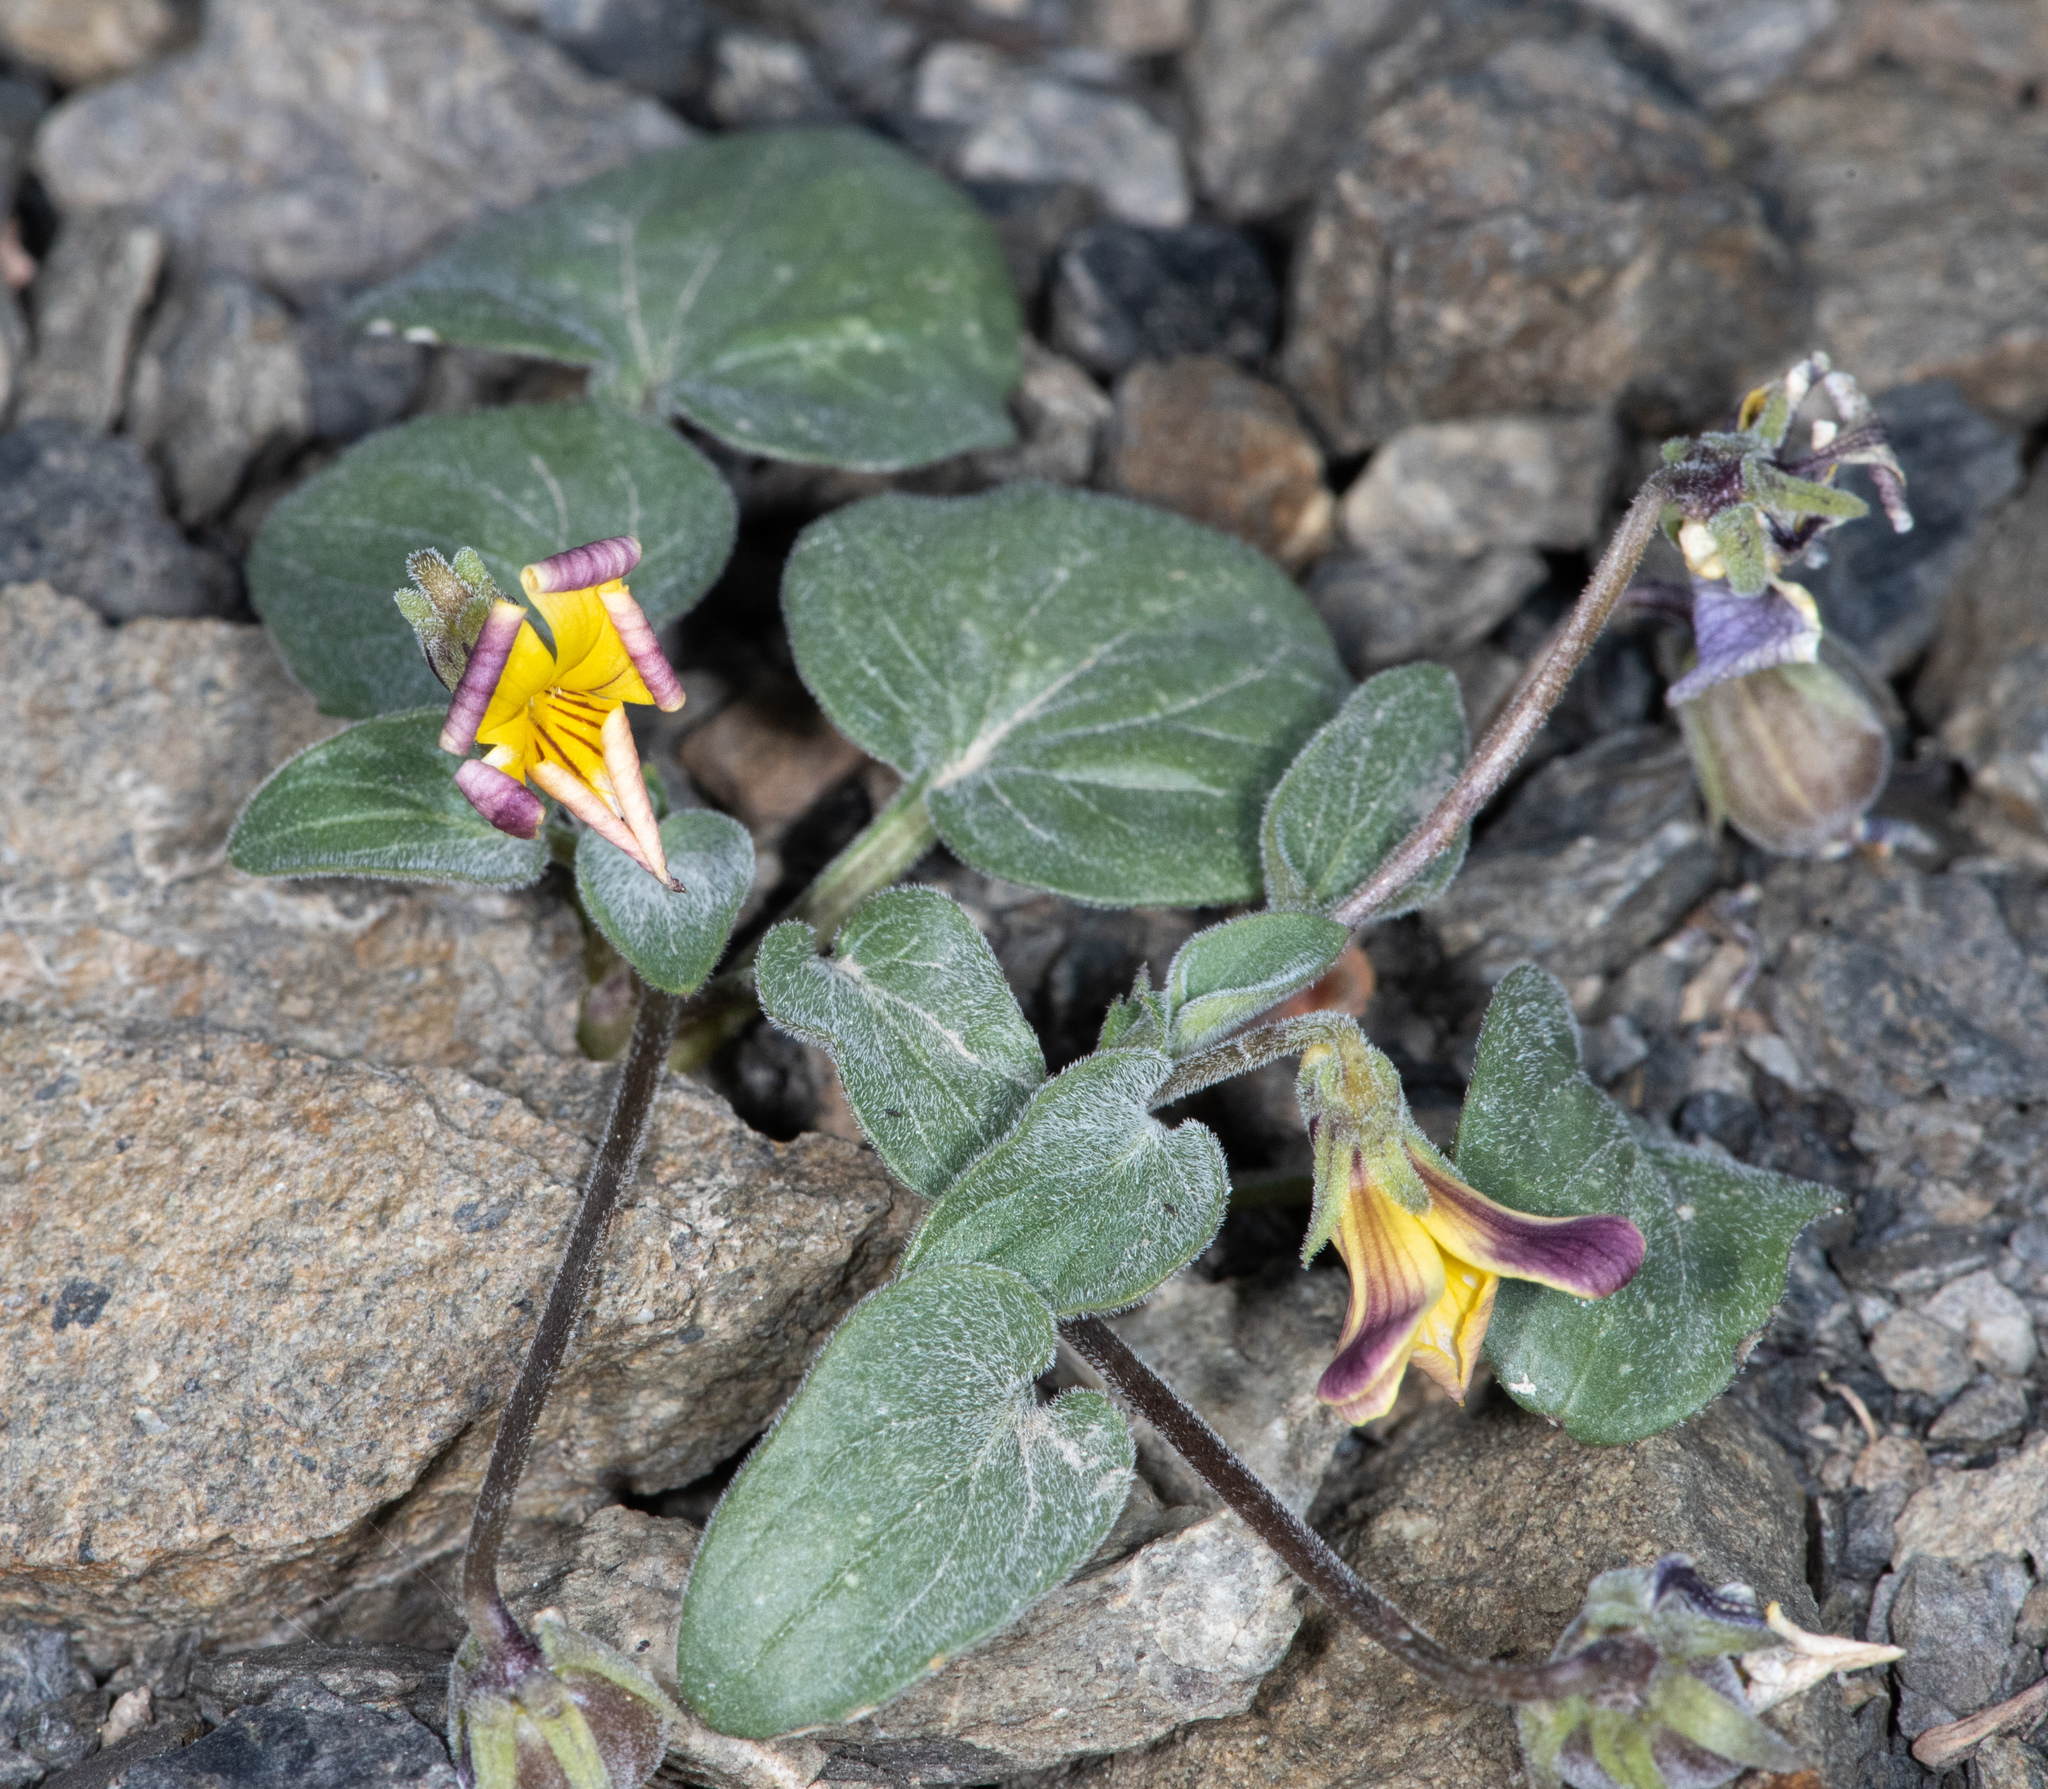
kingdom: Plantae
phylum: Tracheophyta
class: Magnoliopsida
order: Malpighiales
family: Violaceae
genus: Viola
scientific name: Viola purpurea
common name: Pine violet
